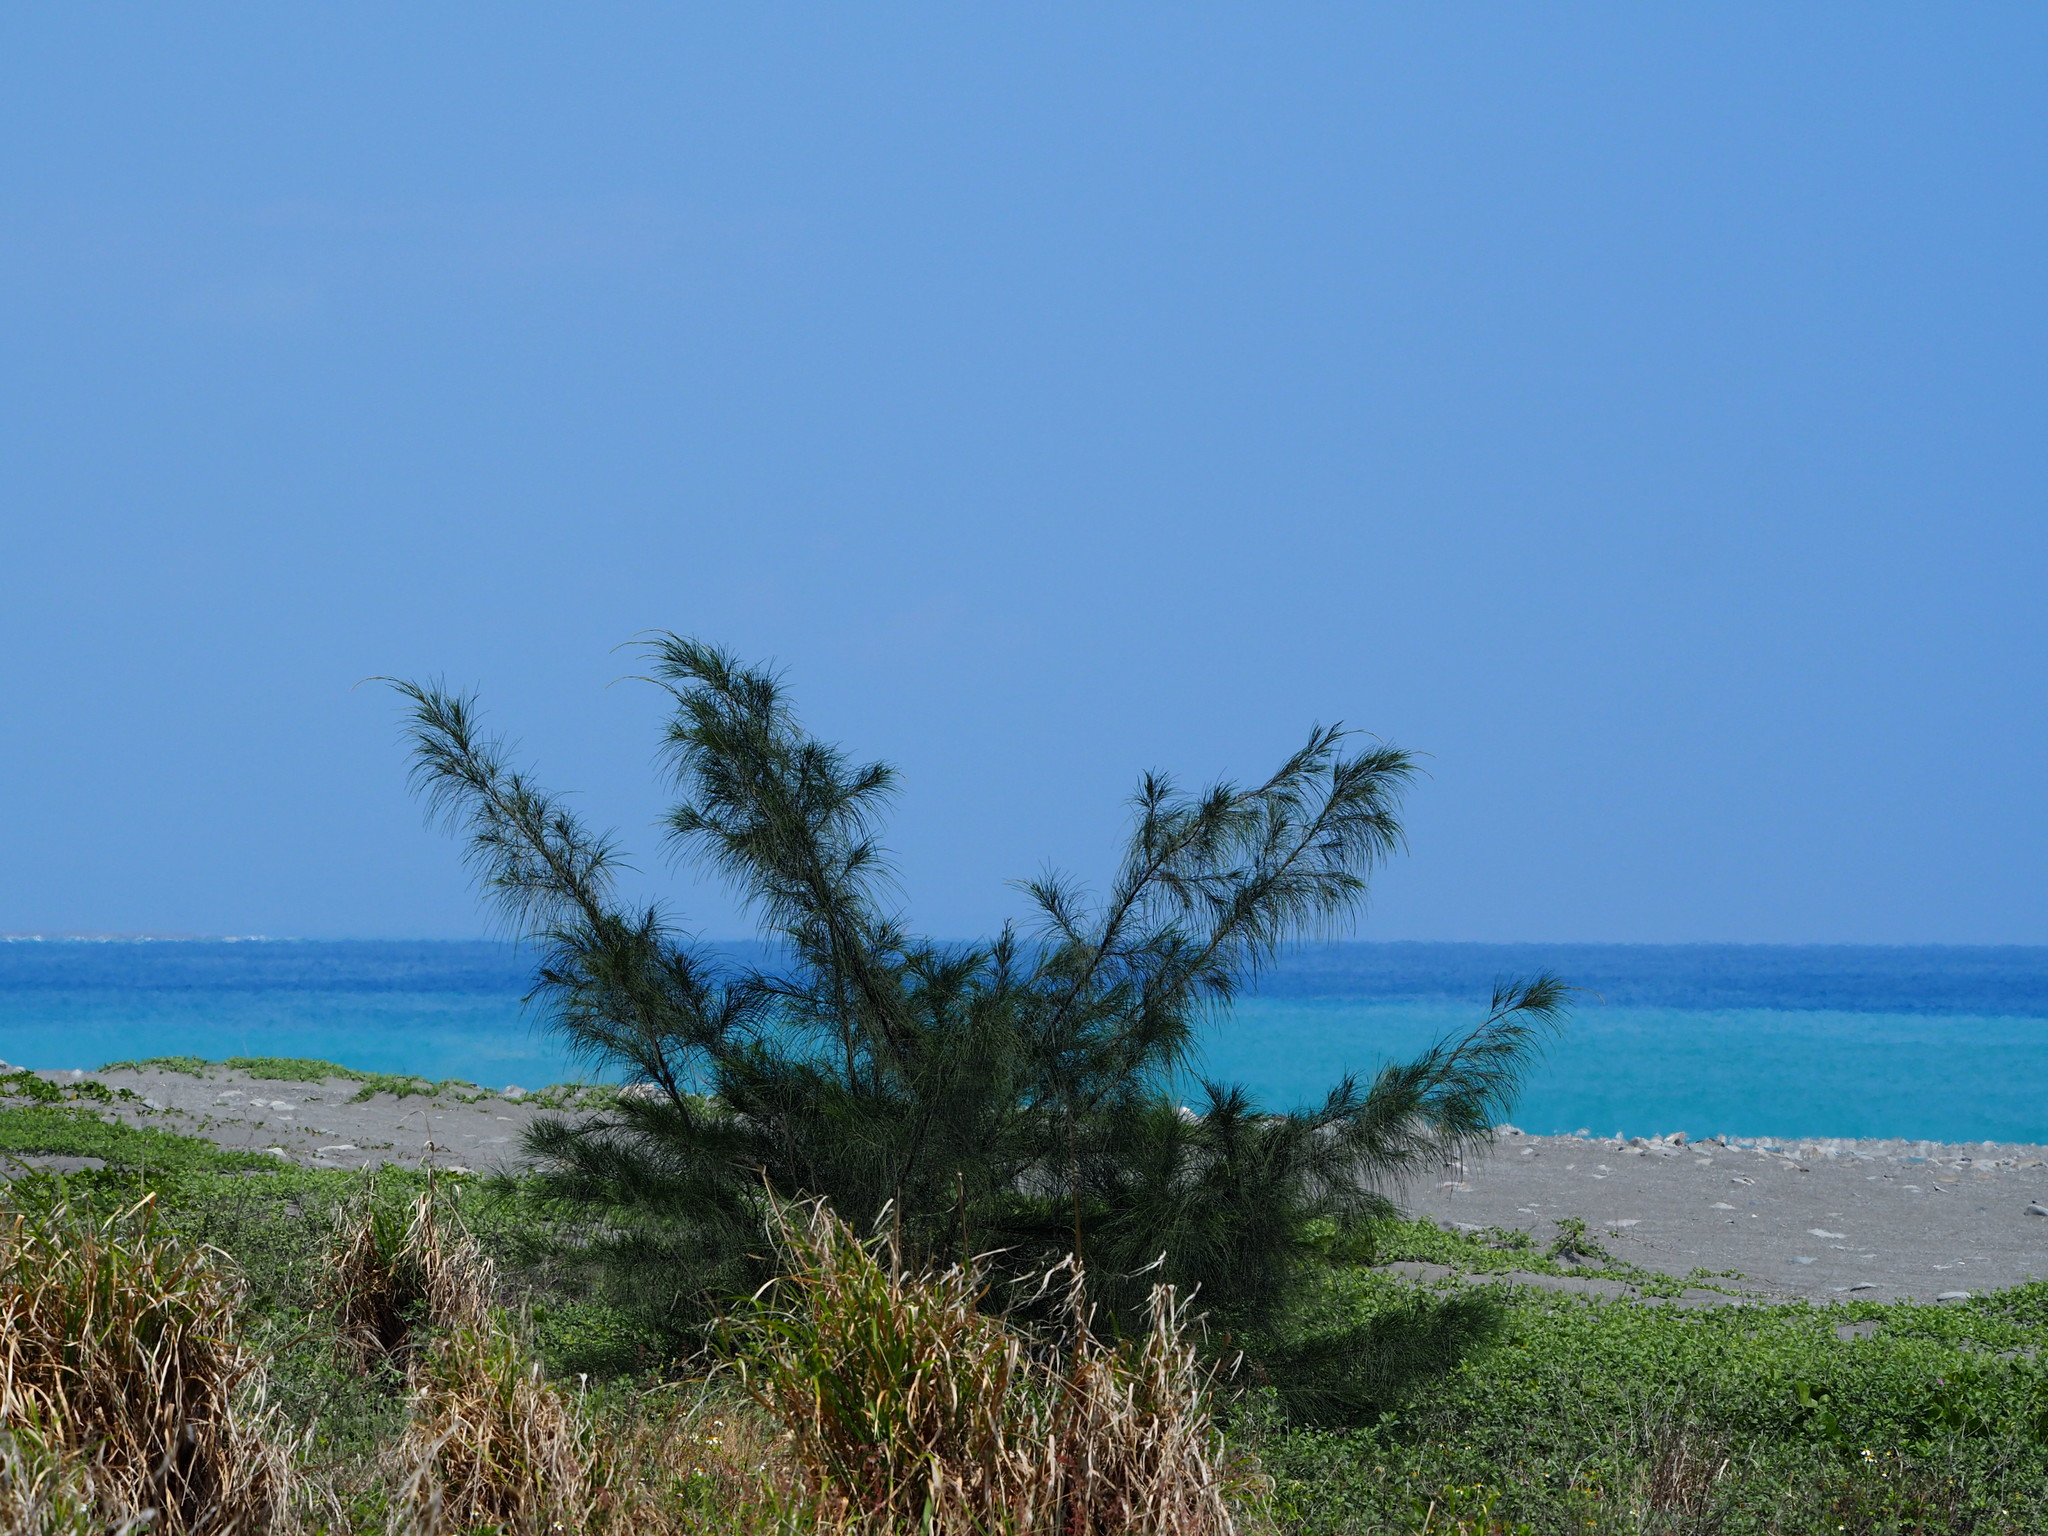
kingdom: Plantae
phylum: Tracheophyta
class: Magnoliopsida
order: Fagales
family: Casuarinaceae
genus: Casuarina
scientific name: Casuarina equisetifolia
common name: Beach sheoak
